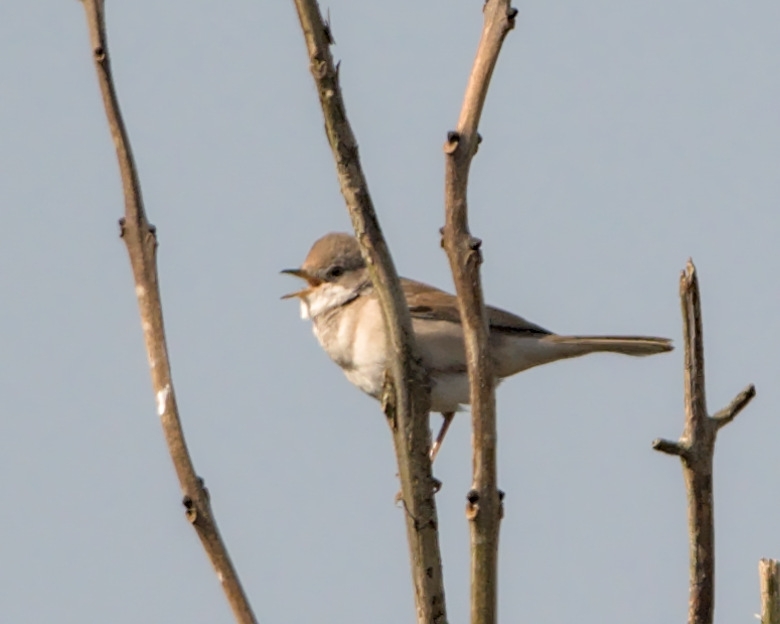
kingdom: Animalia
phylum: Chordata
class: Aves
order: Passeriformes
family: Sylviidae
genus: Sylvia
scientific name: Sylvia communis
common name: Common whitethroat
